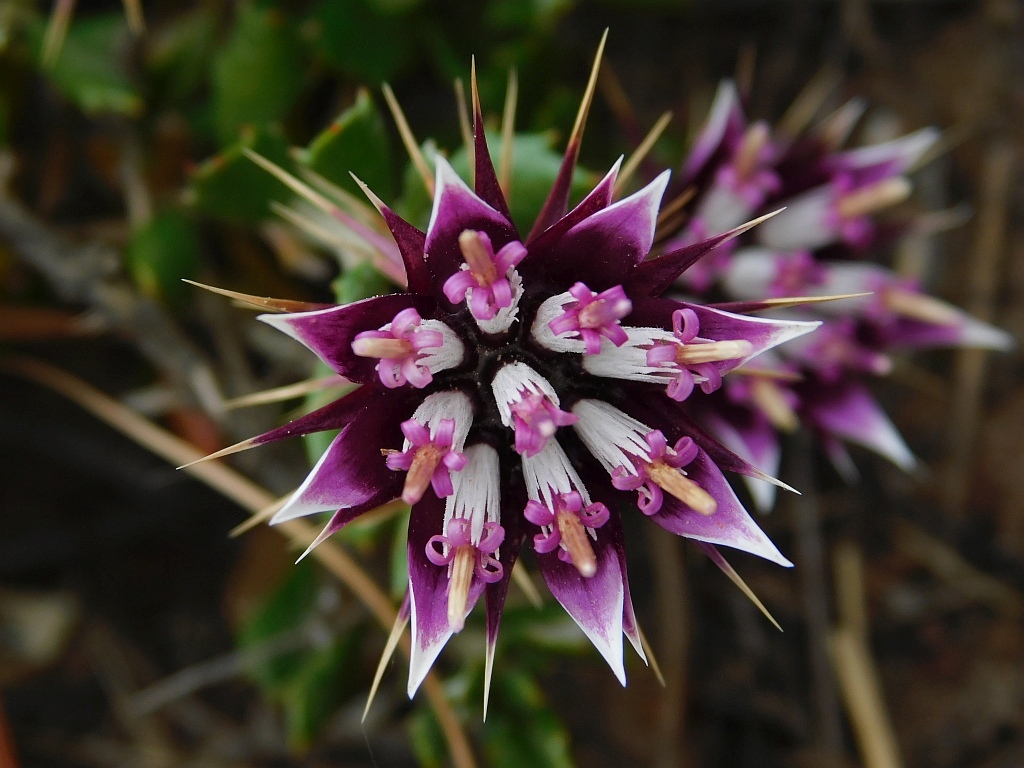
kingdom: Plantae
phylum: Tracheophyta
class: Magnoliopsida
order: Asterales
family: Asteraceae
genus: Macledium
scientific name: Macledium spinosum
